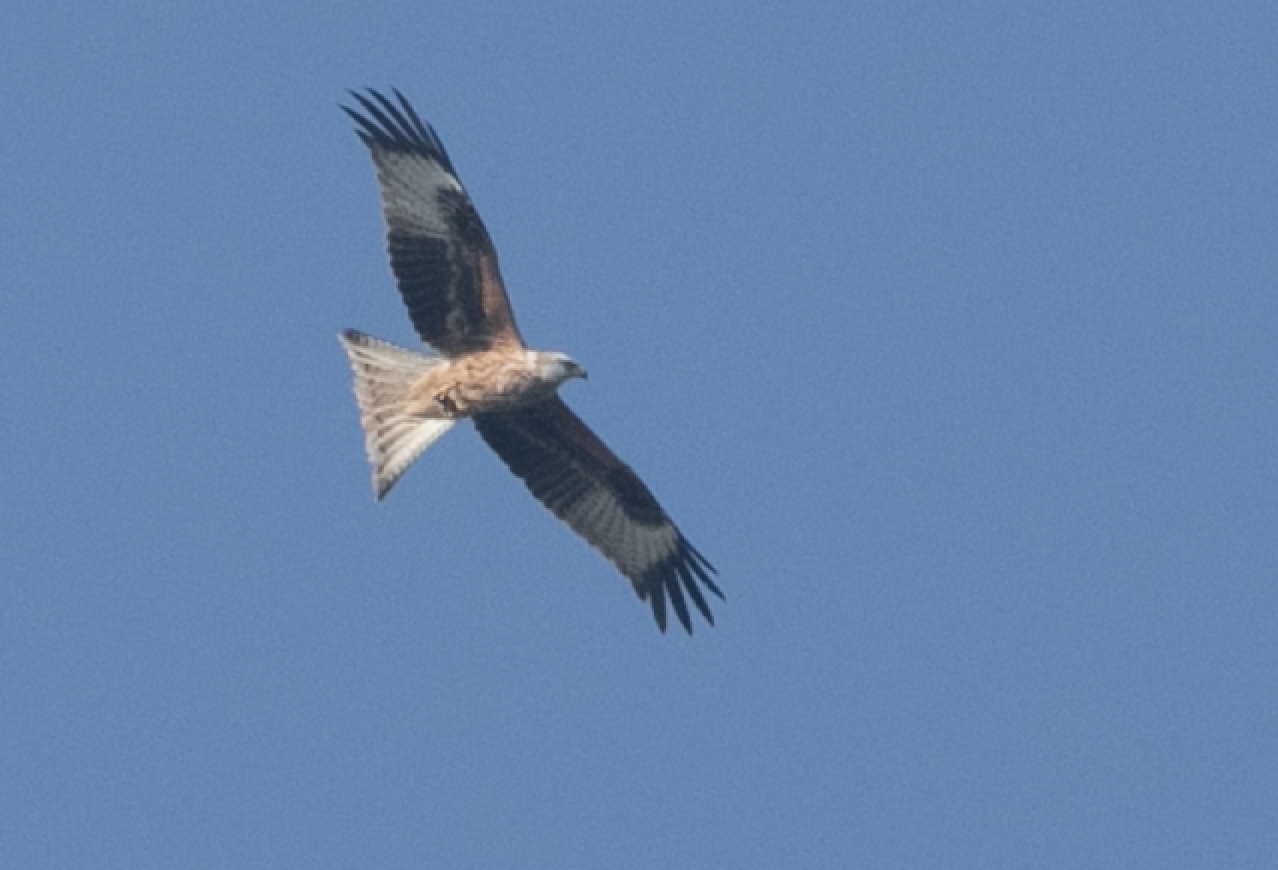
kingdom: Animalia
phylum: Chordata
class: Aves
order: Accipitriformes
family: Accipitridae
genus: Milvus
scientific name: Milvus milvus
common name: Red kite
